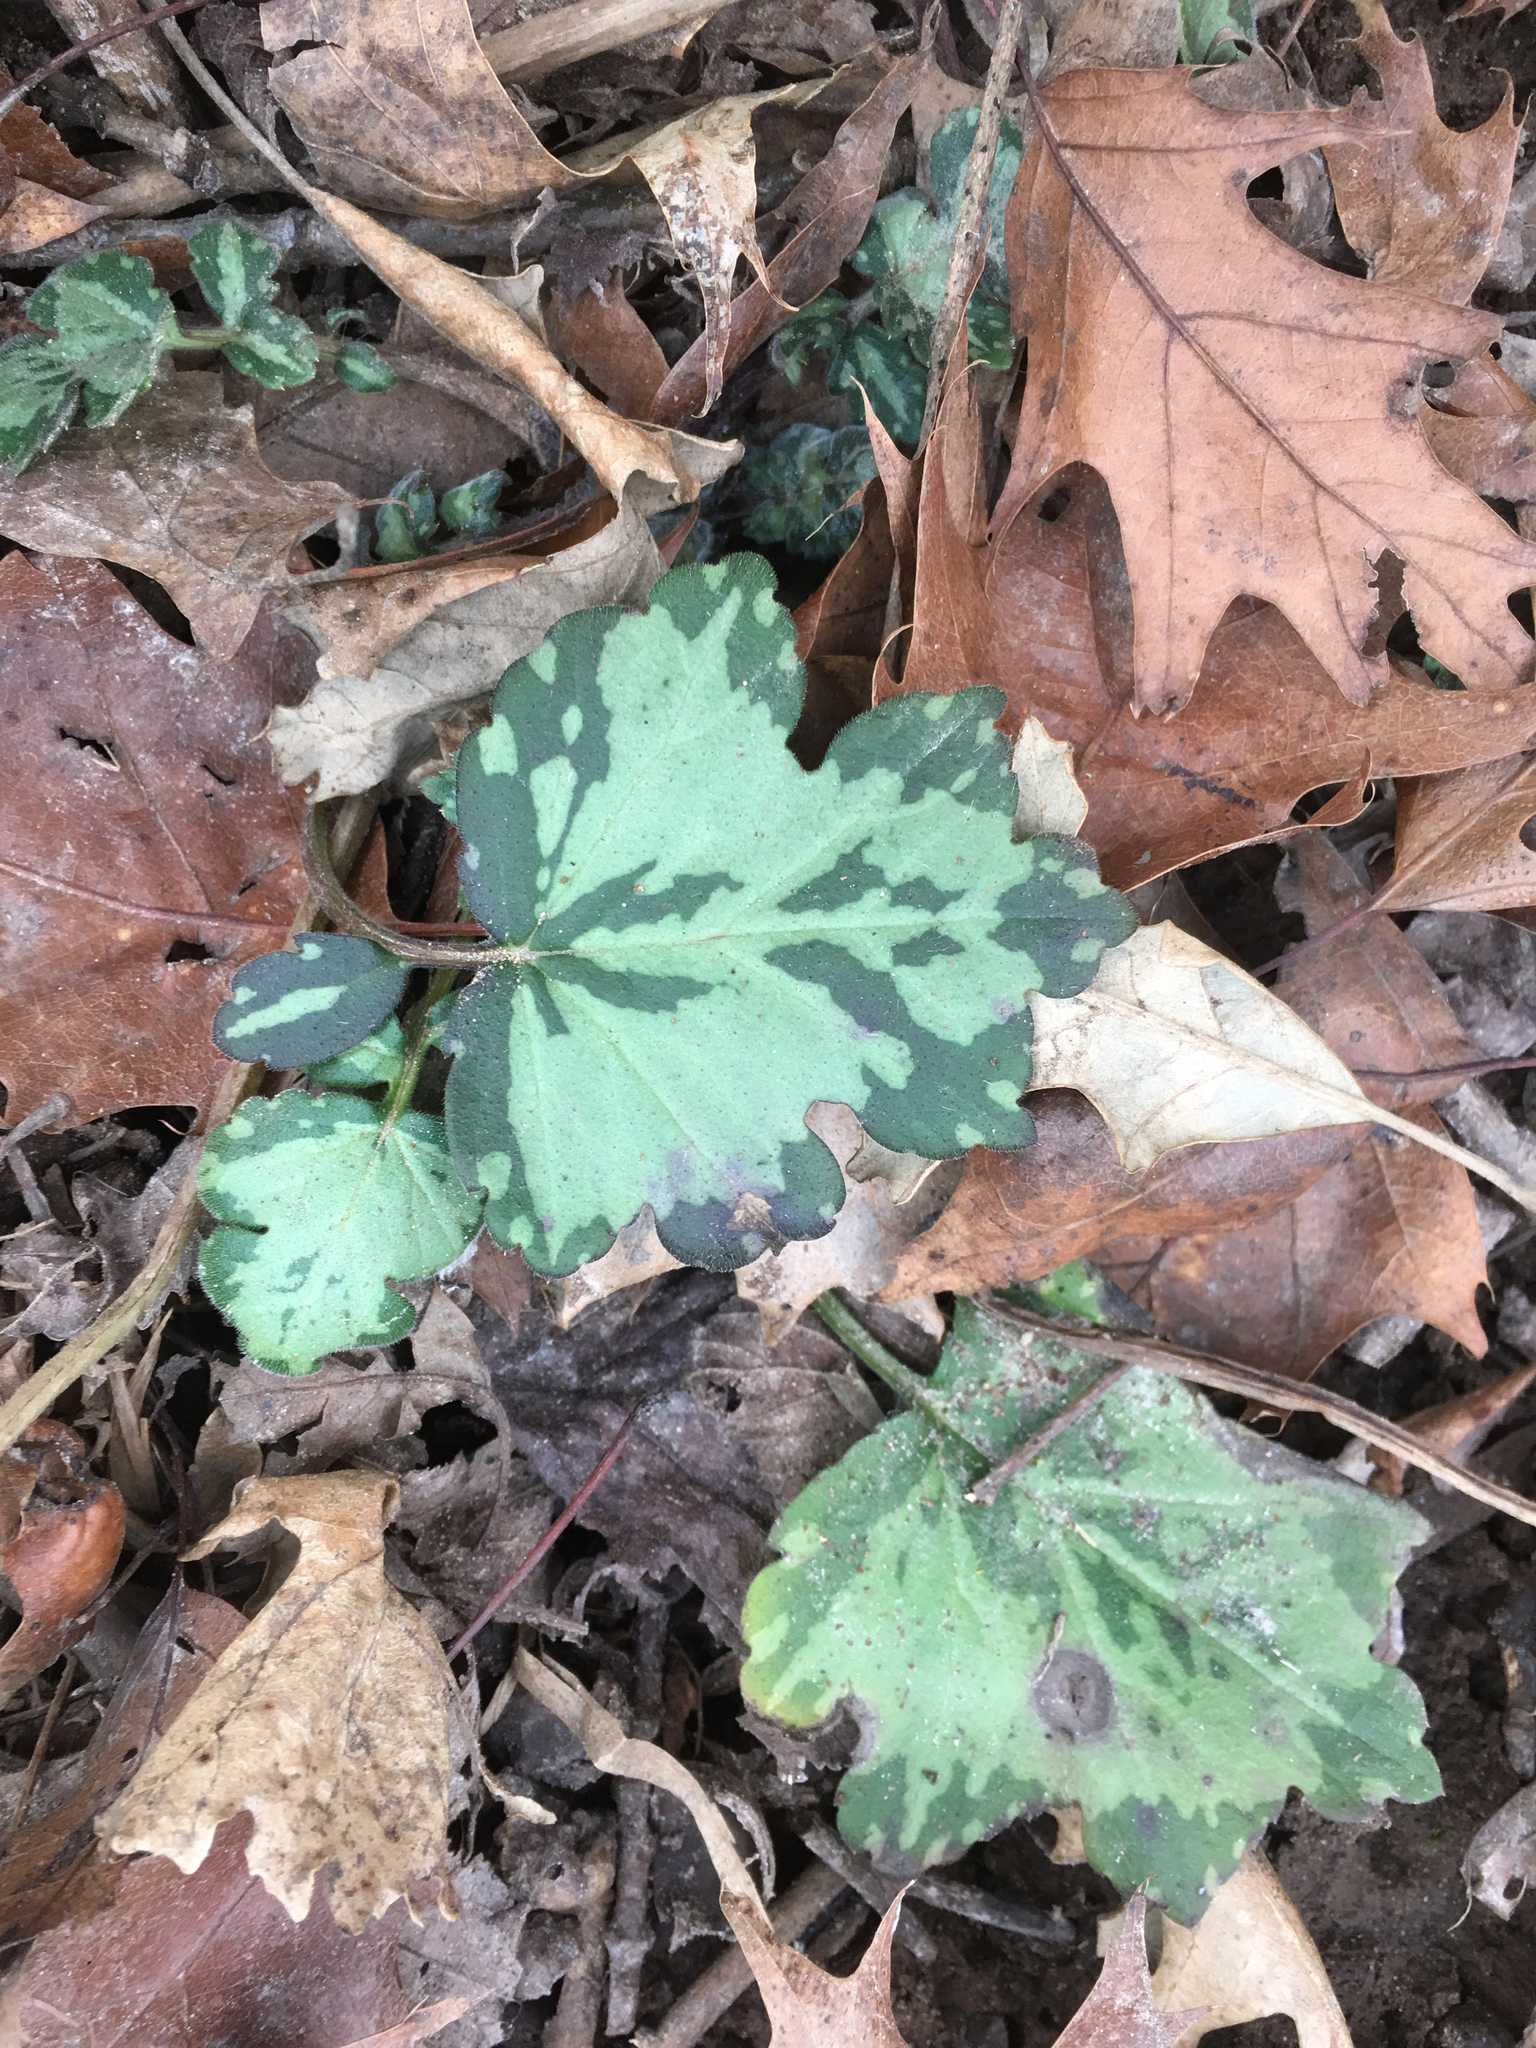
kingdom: Plantae
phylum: Tracheophyta
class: Magnoliopsida
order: Boraginales
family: Hydrophyllaceae
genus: Hydrophyllum
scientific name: Hydrophyllum appendiculatum
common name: Appendaged waterleaf
